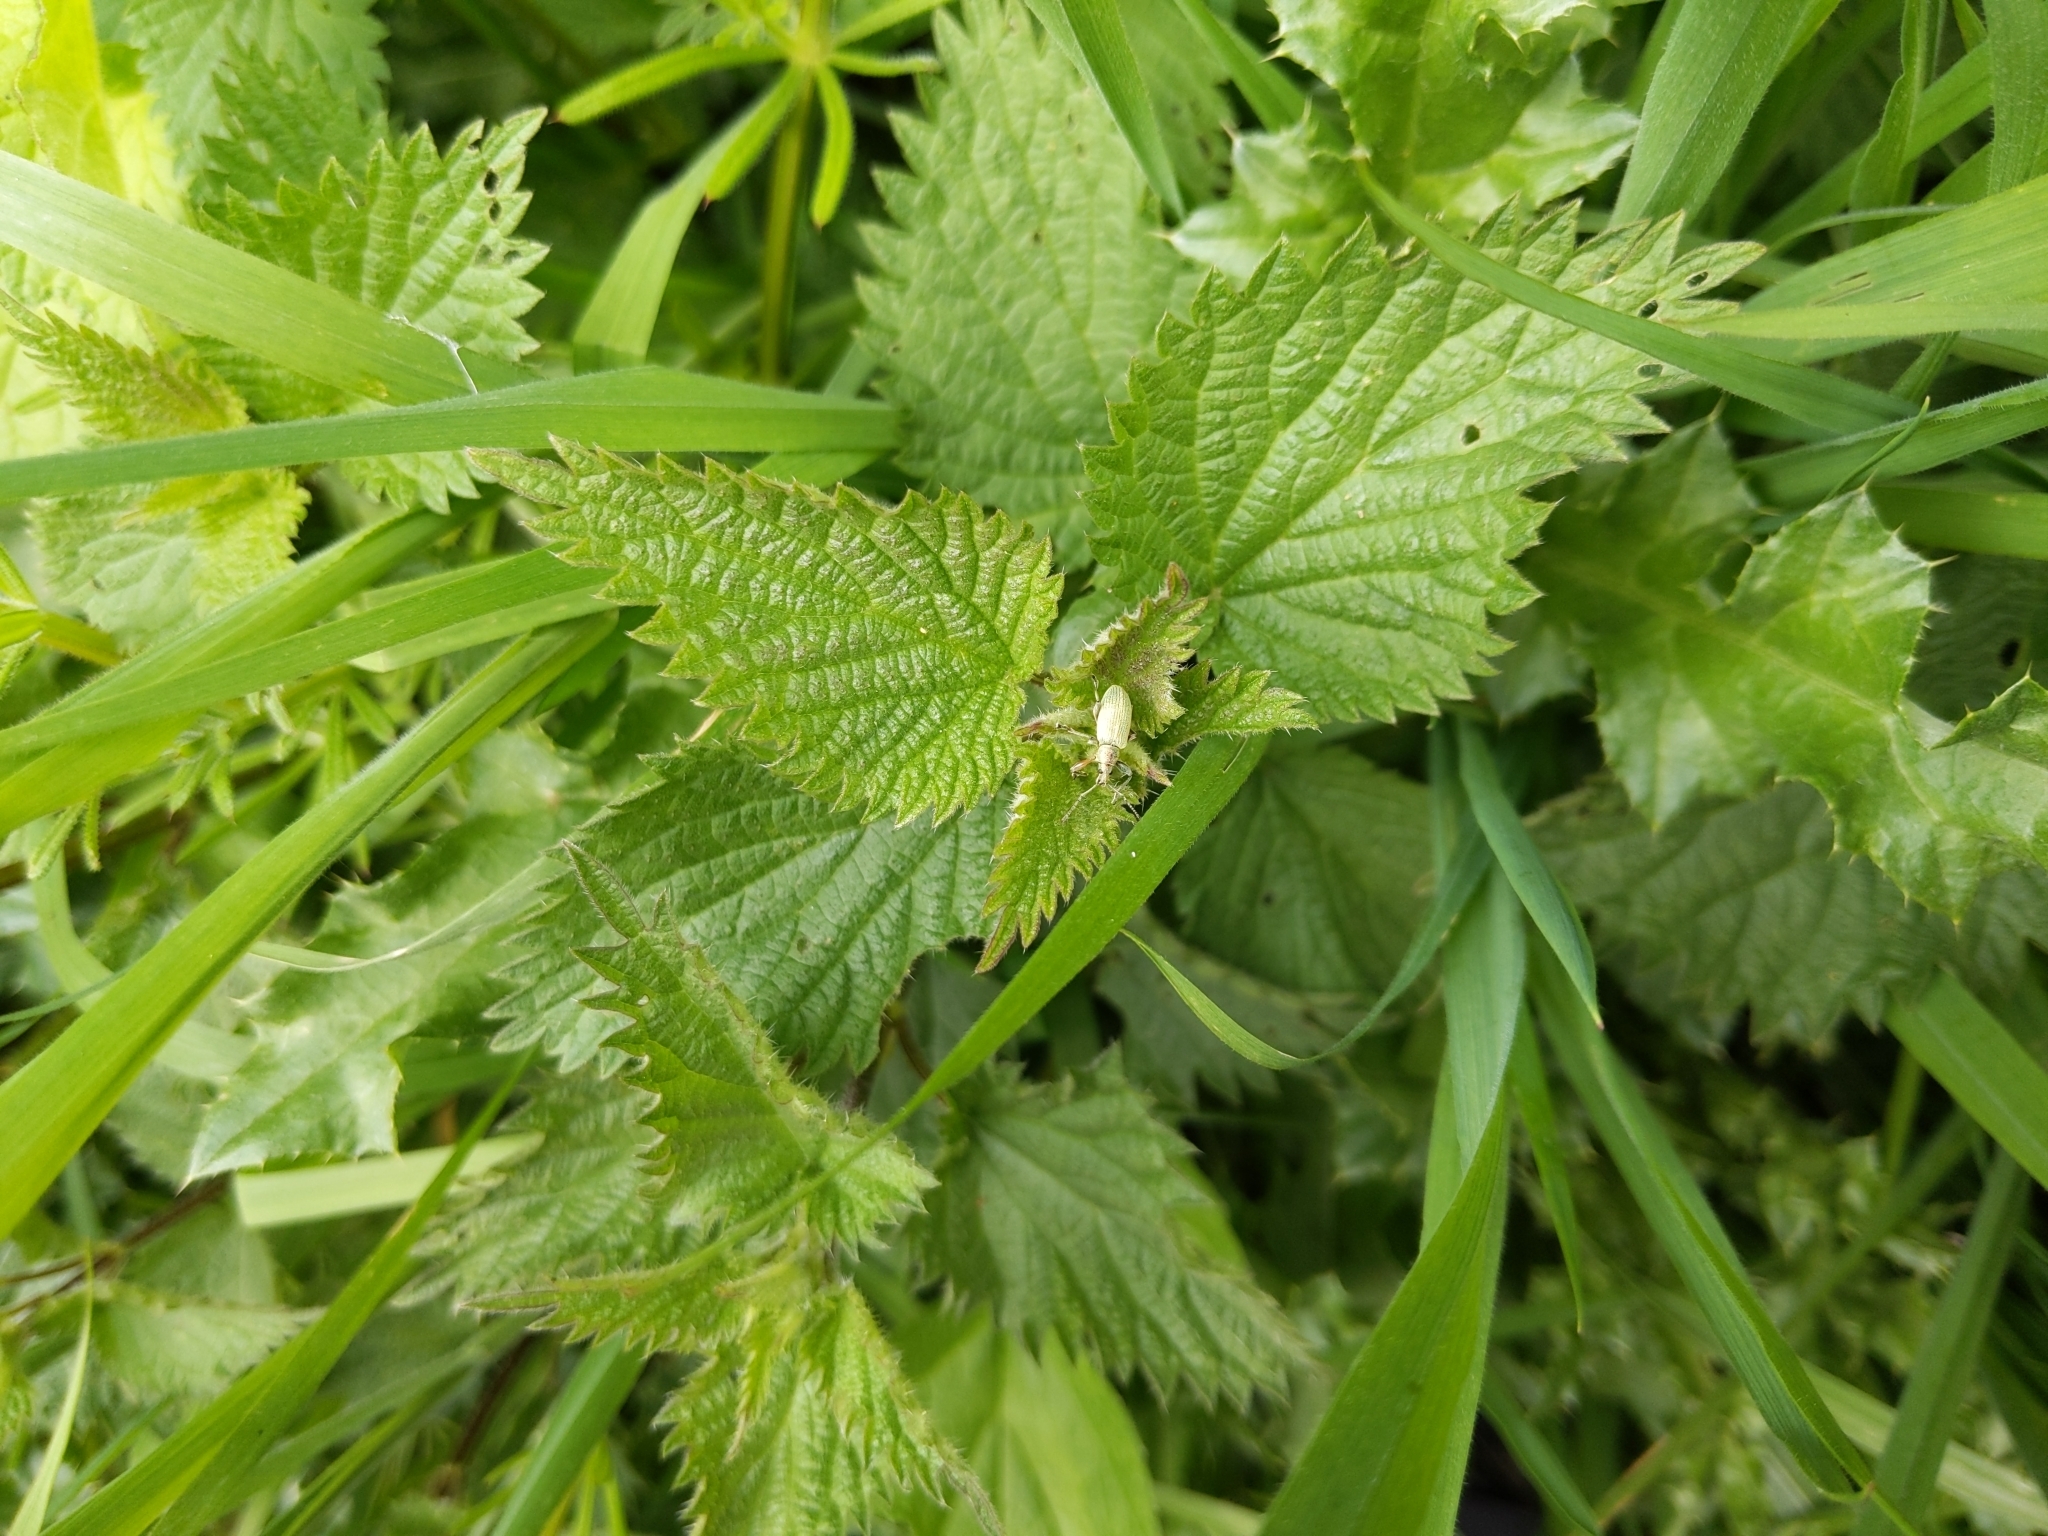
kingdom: Animalia
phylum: Arthropoda
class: Insecta
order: Coleoptera
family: Curculionidae
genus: Phyllobius
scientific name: Phyllobius pomaceus
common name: Green nettle weevil
